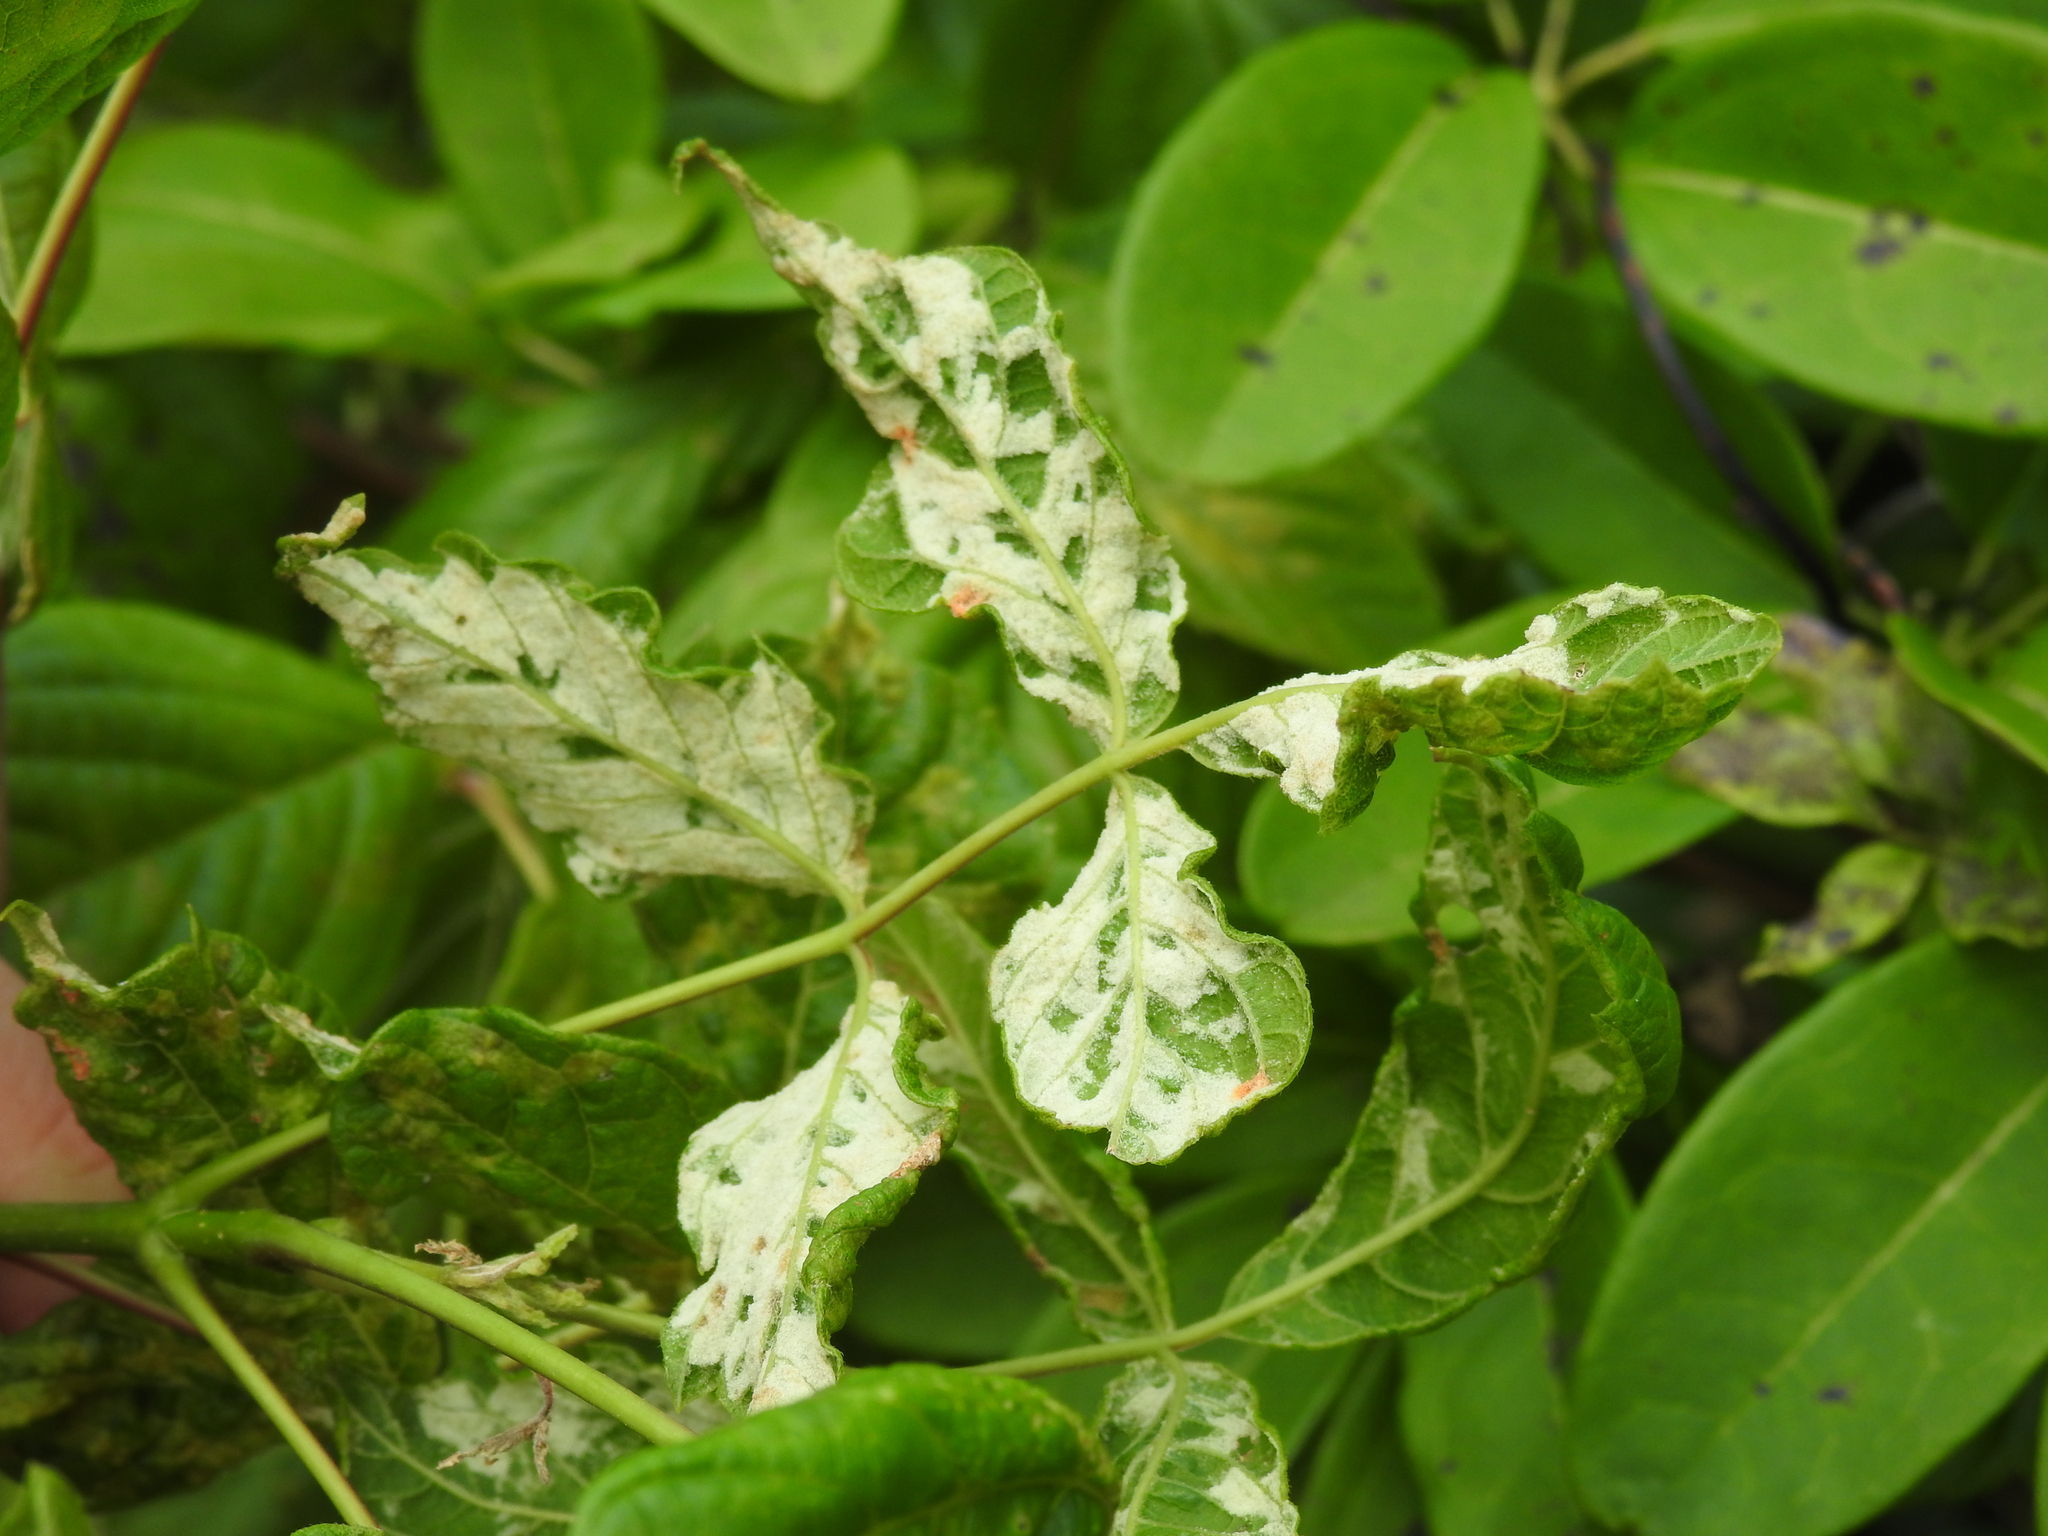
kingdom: Animalia
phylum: Arthropoda
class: Arachnida
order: Trombidiformes
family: Eriophyidae
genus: Aceria
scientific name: Aceria
